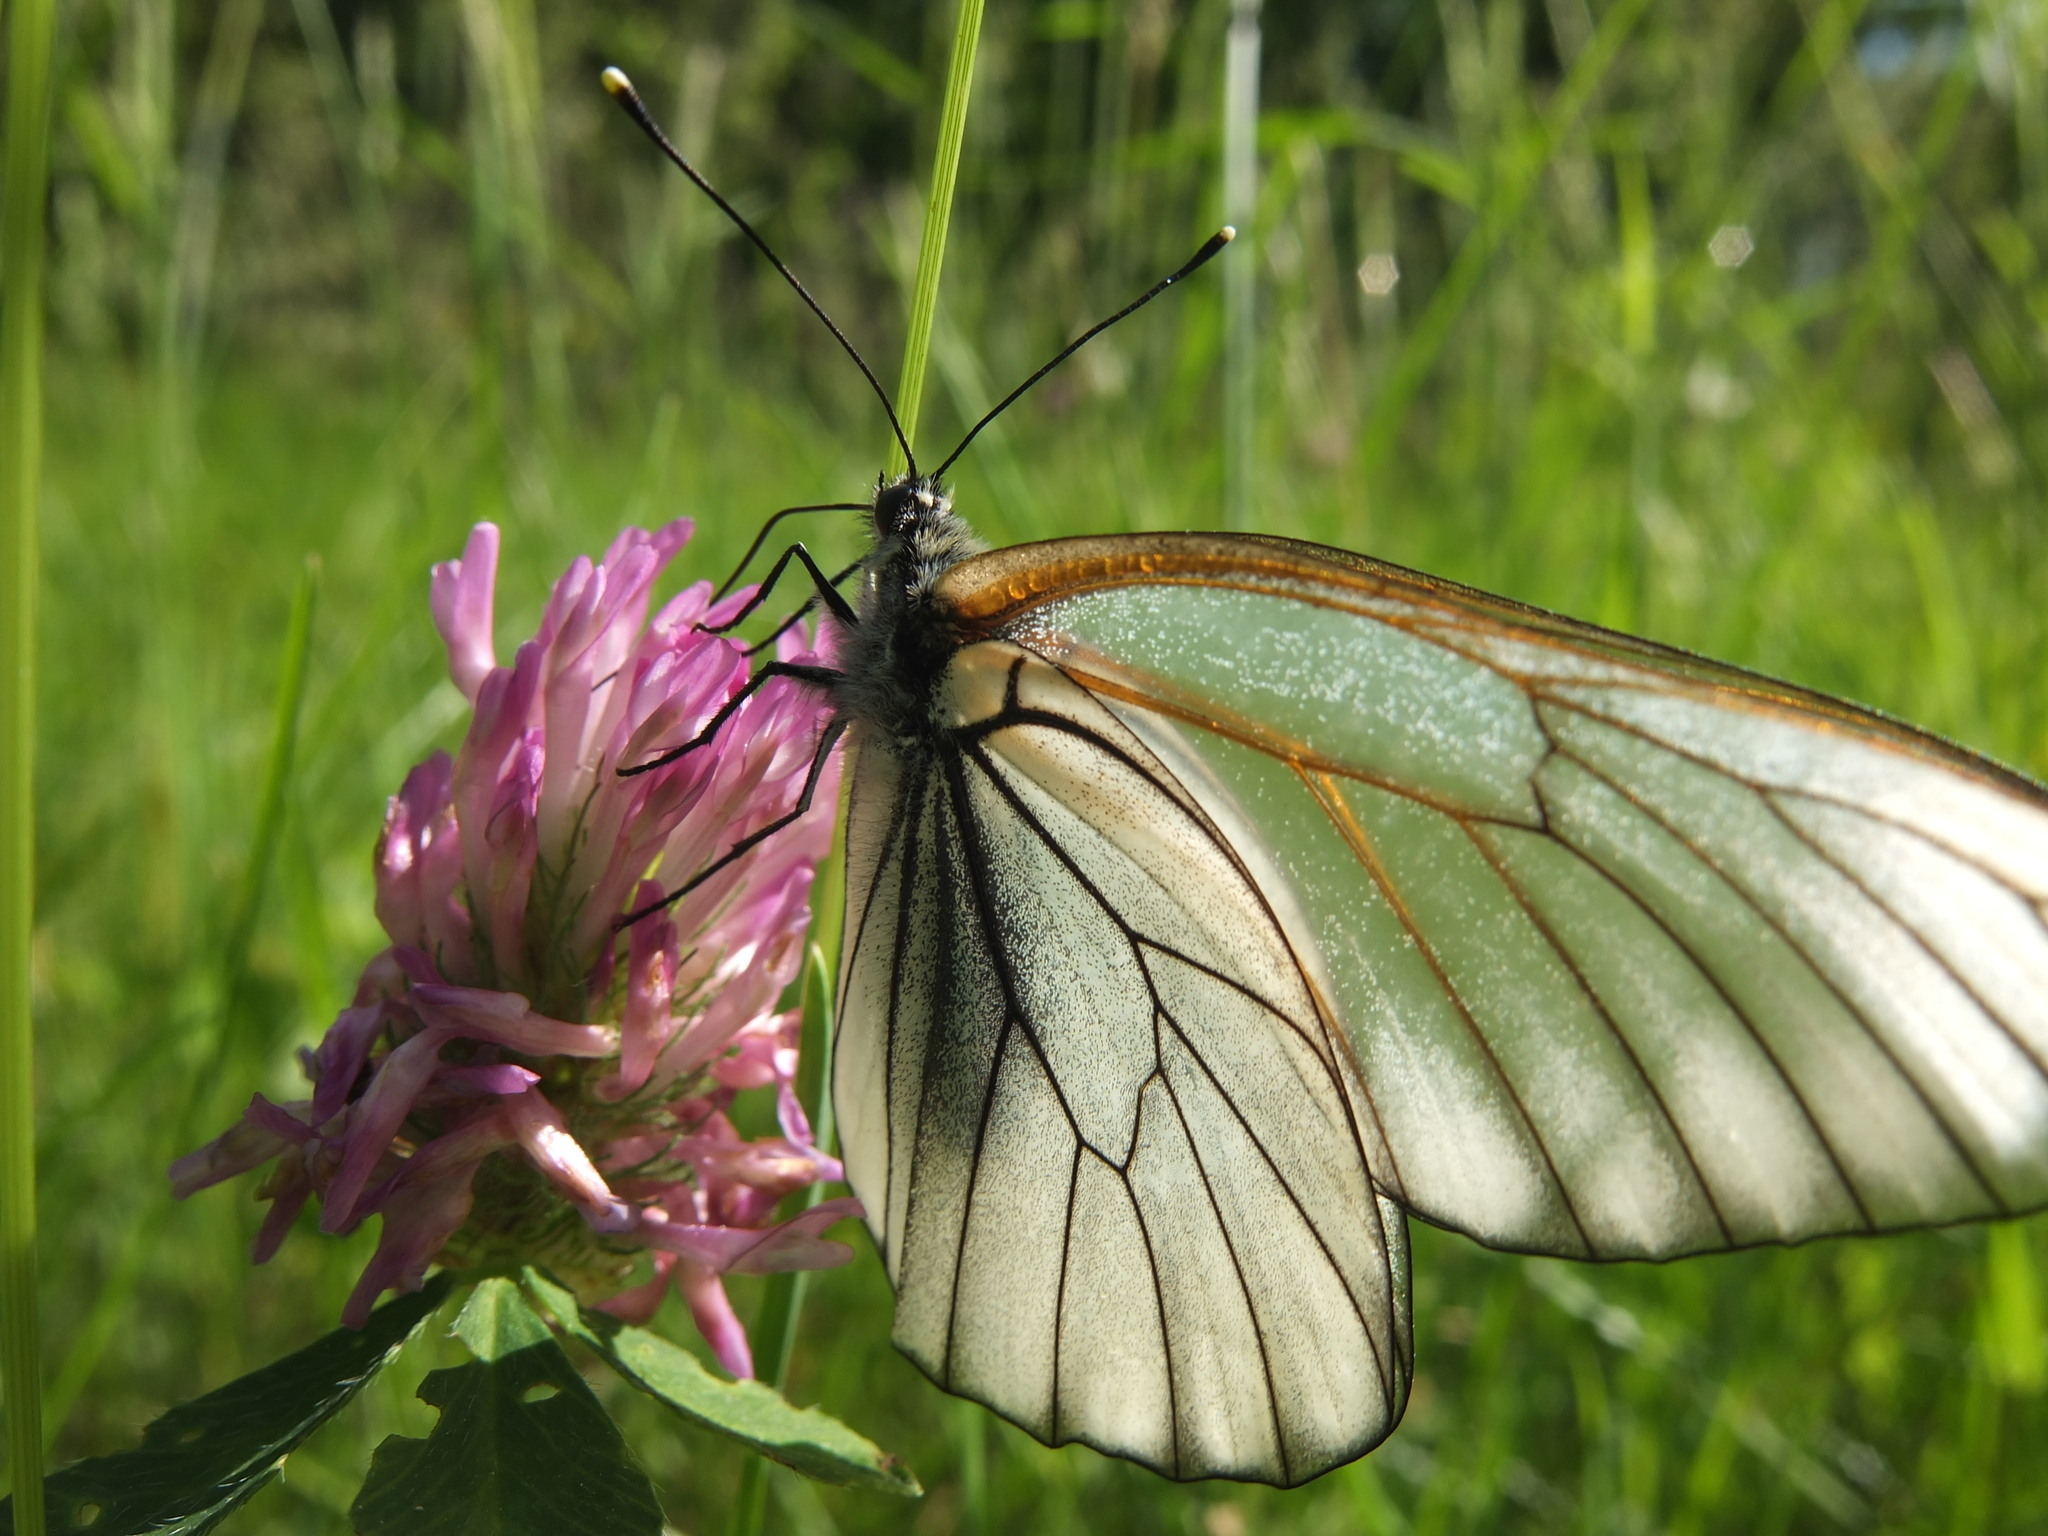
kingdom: Animalia
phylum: Arthropoda
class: Insecta
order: Lepidoptera
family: Pieridae
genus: Aporia
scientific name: Aporia crataegi
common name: Black-veined white
